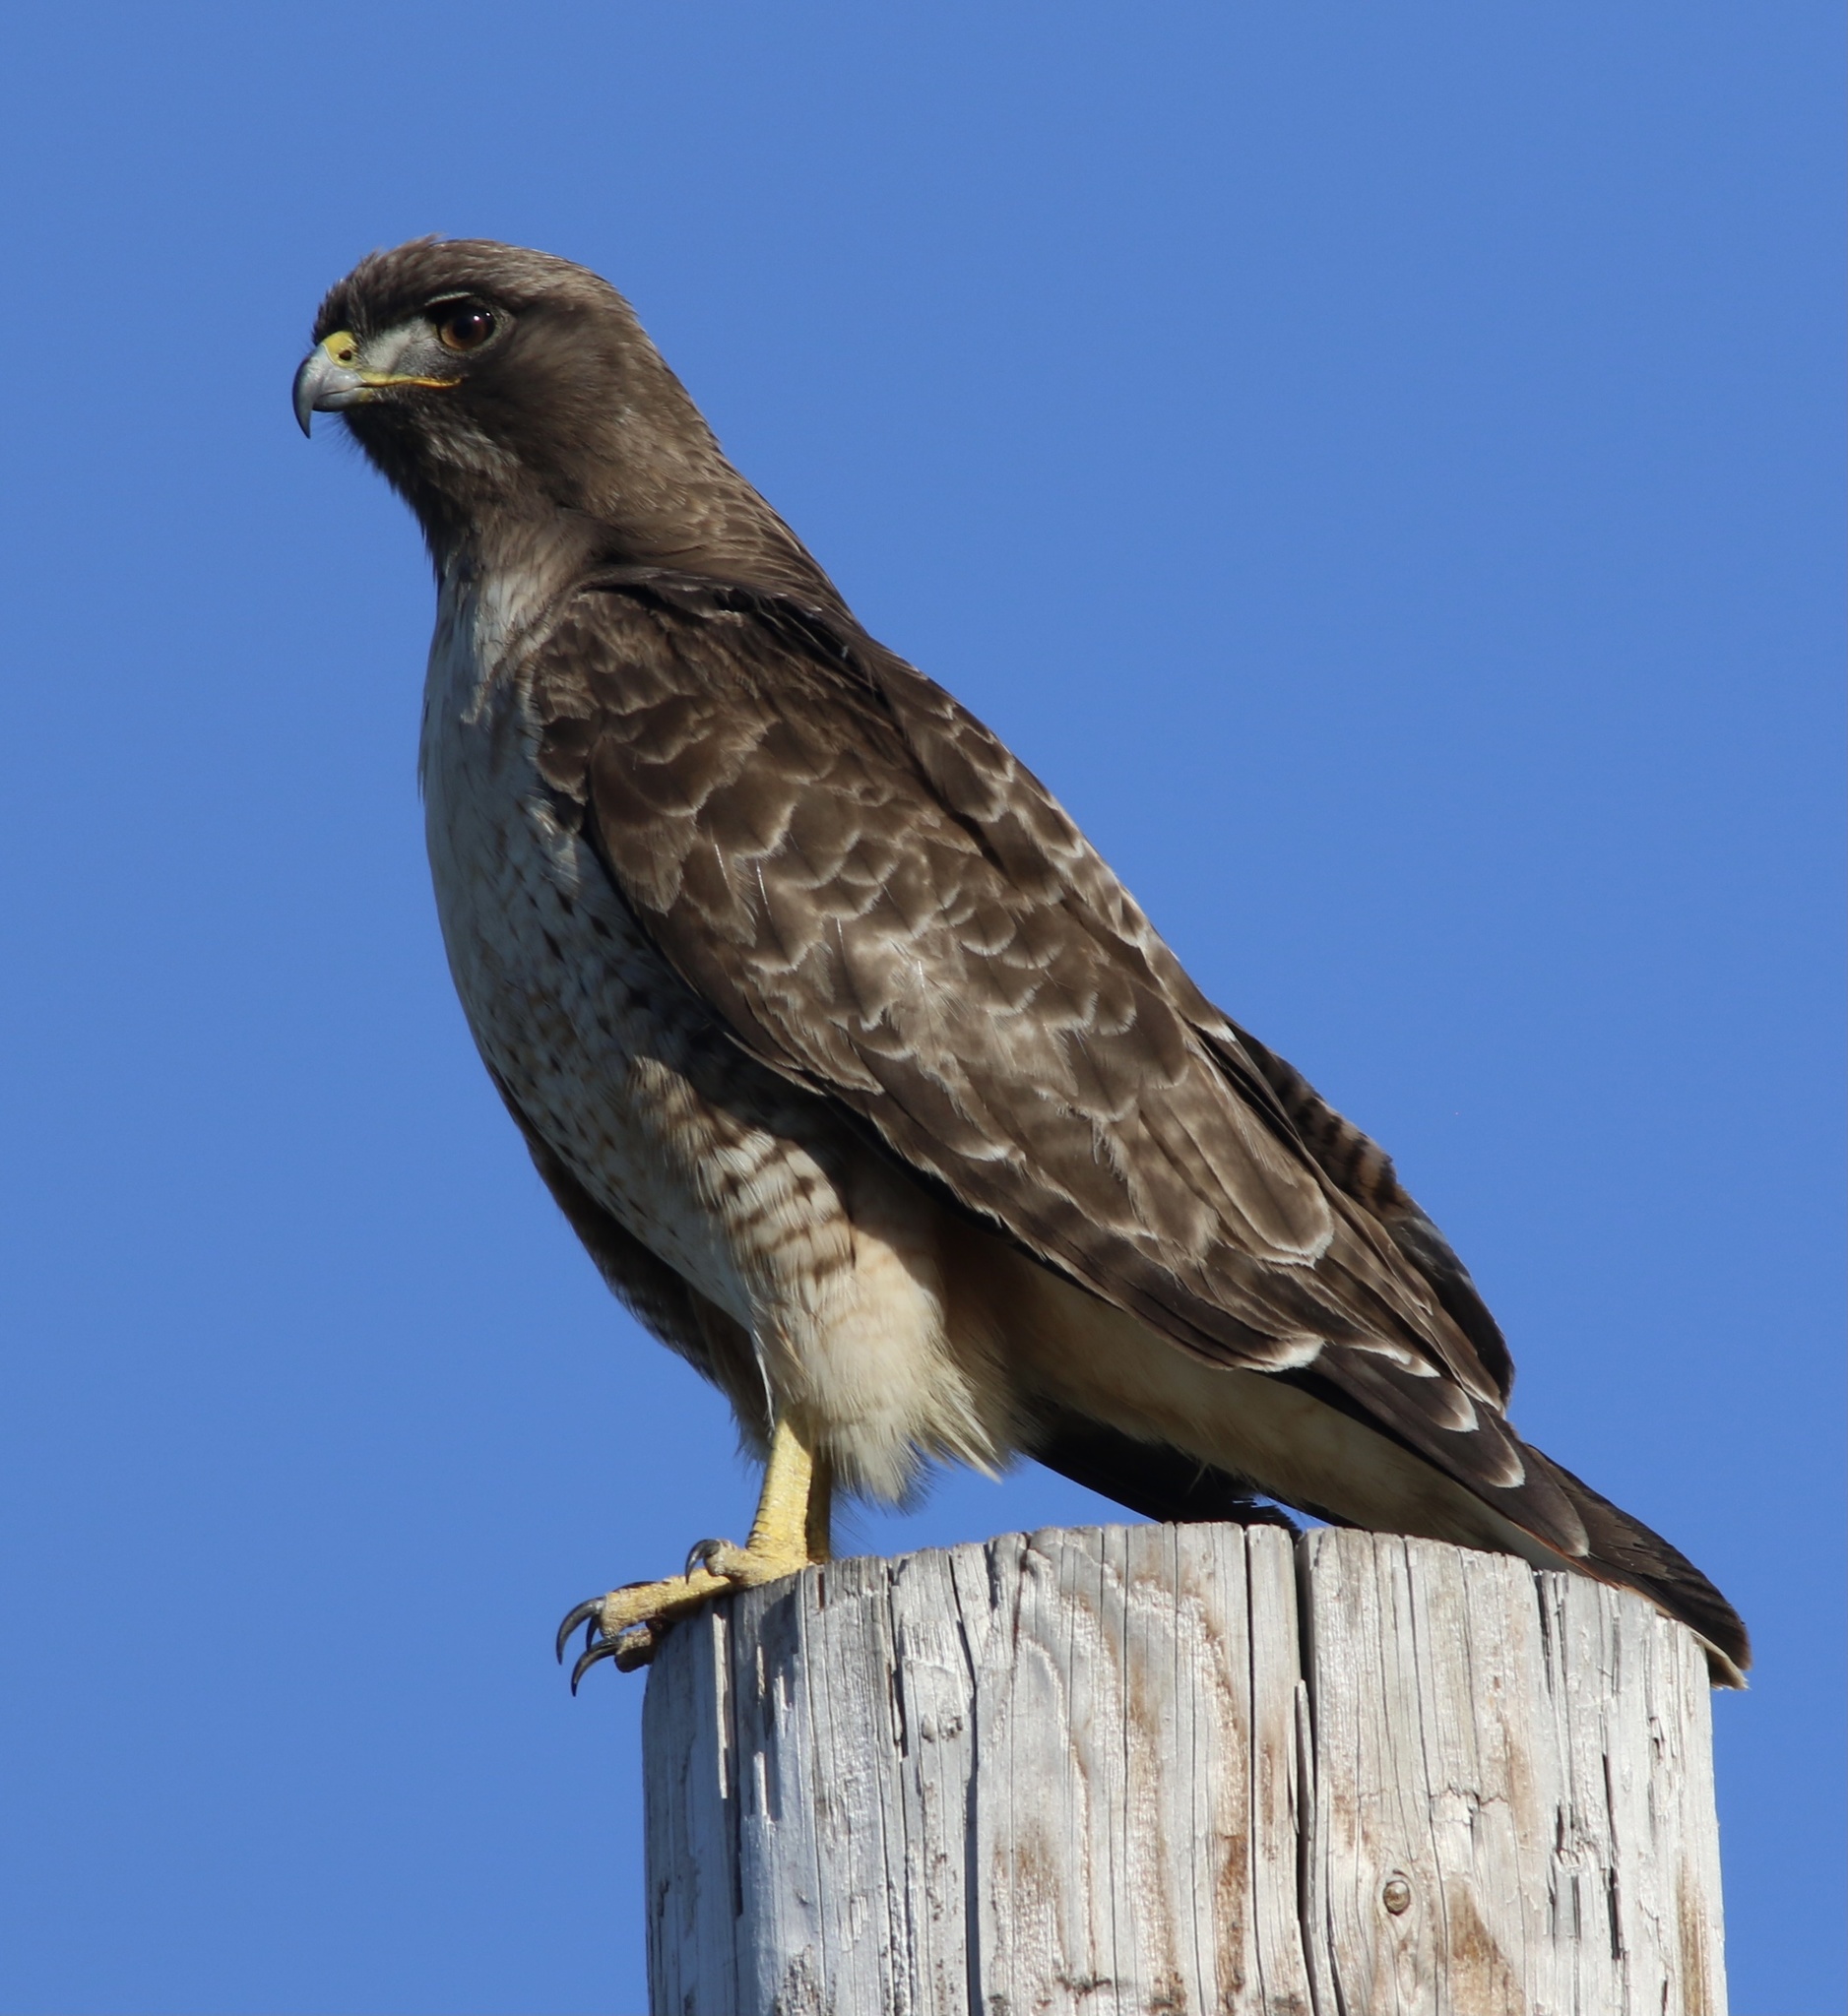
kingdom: Animalia
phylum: Chordata
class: Aves
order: Accipitriformes
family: Accipitridae
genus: Buteo
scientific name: Buteo jamaicensis
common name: Red-tailed hawk
